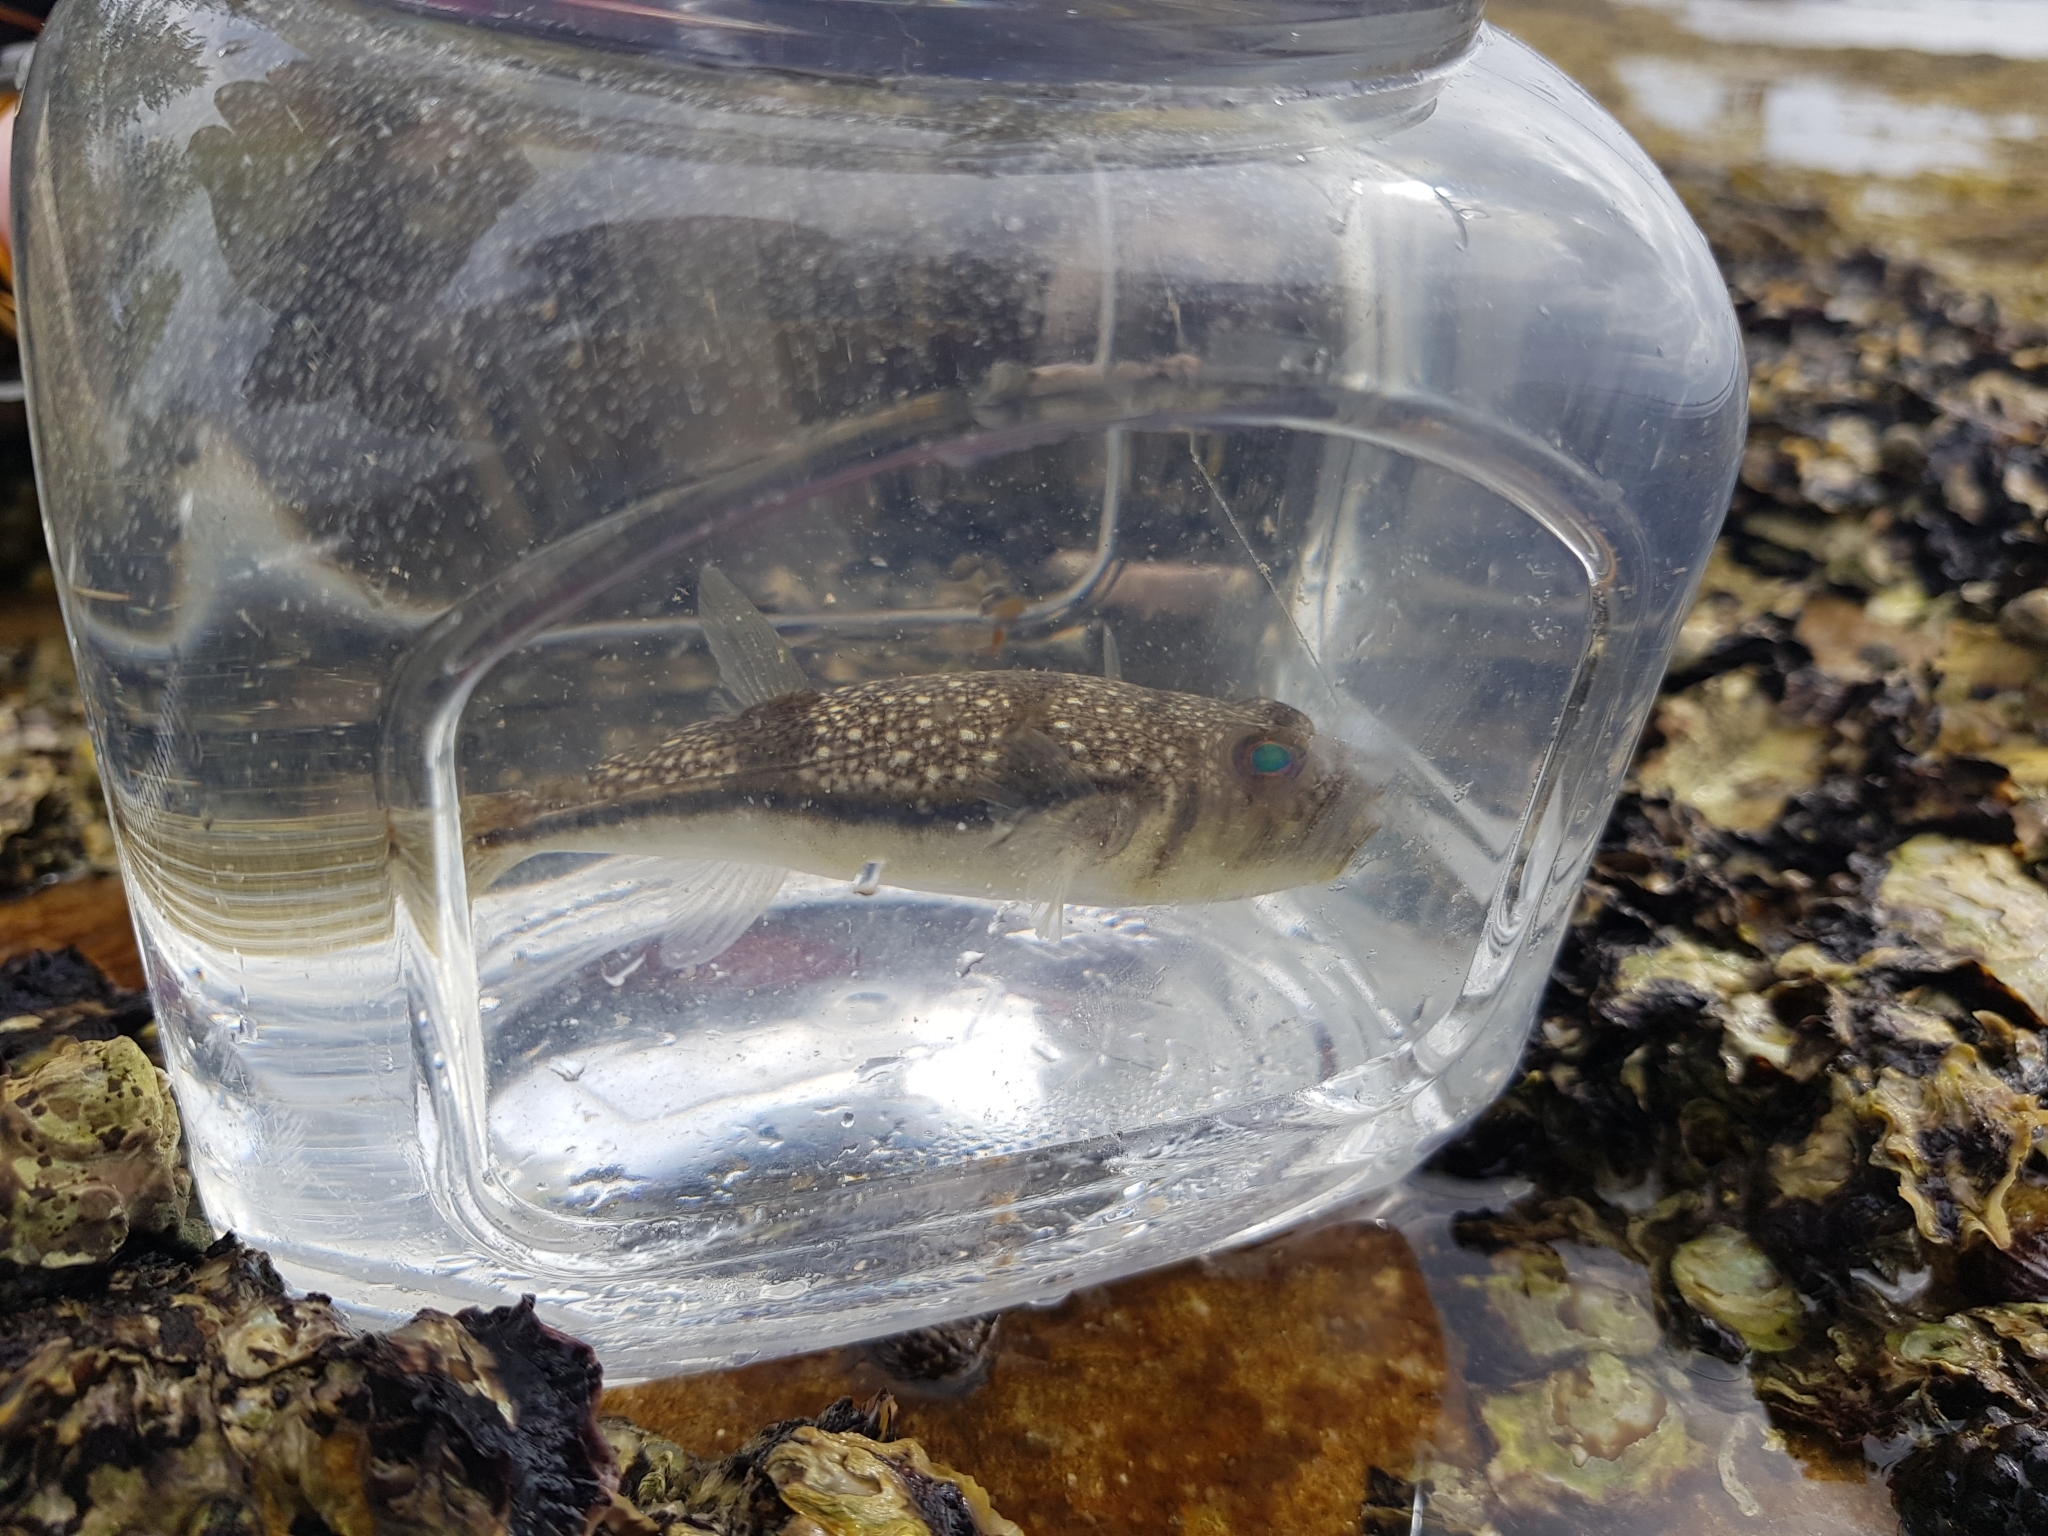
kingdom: Animalia
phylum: Chordata
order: Tetraodontiformes
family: Tetraodontidae
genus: Torquigener
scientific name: Torquigener pleurogramma
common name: Banded toadfish
